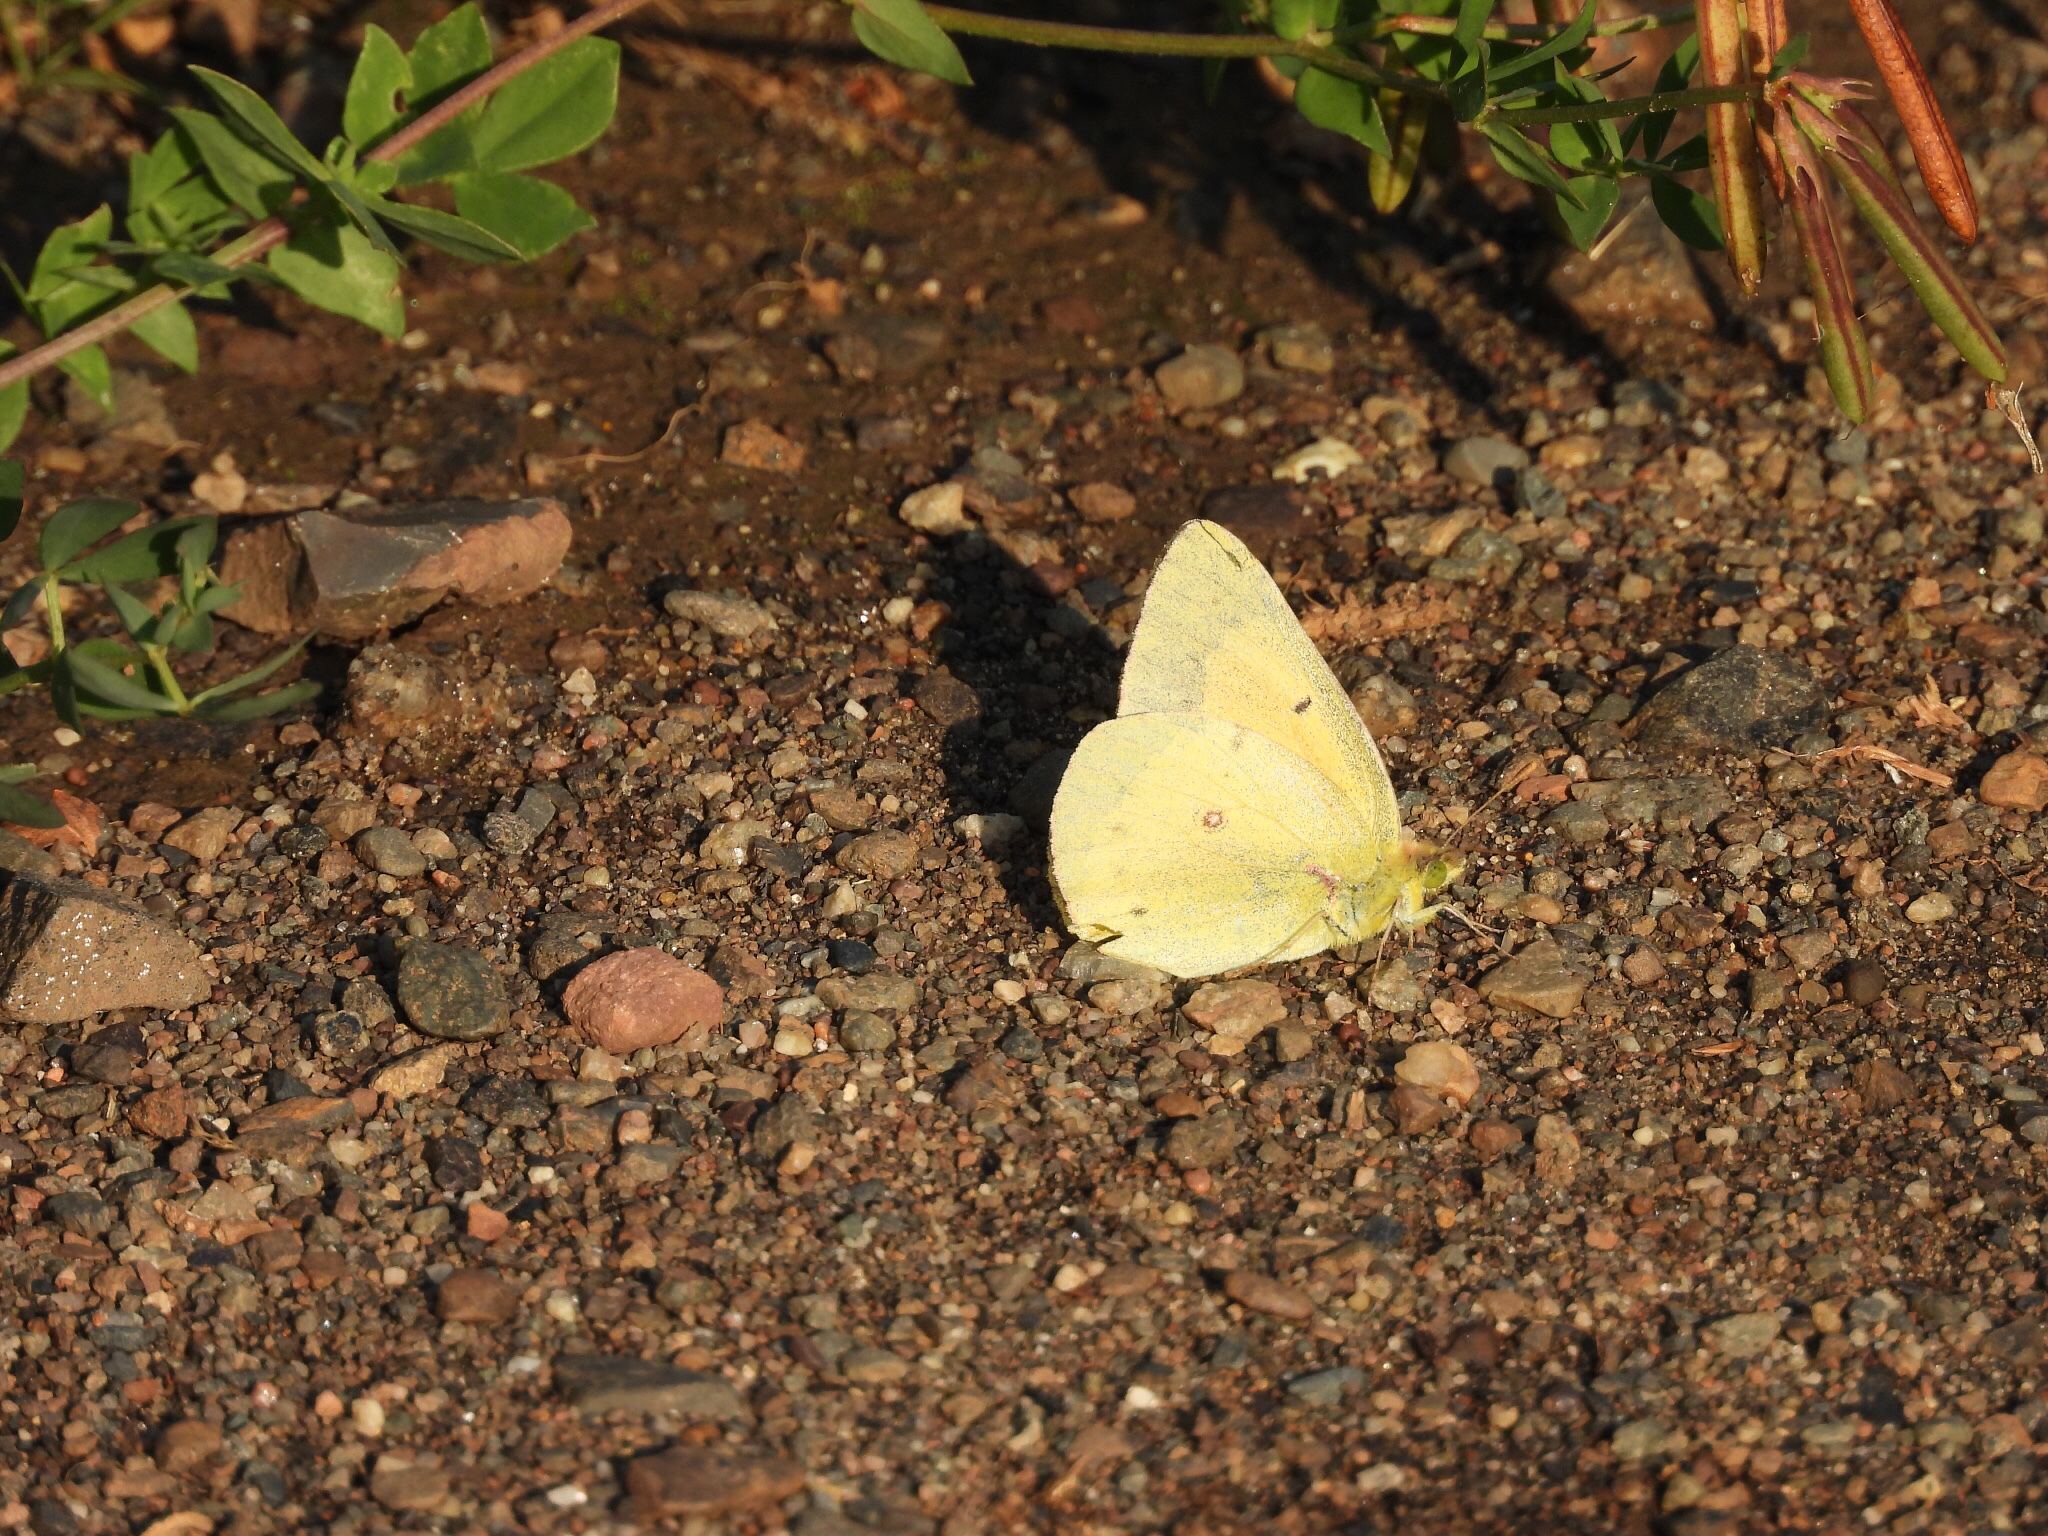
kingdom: Animalia
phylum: Arthropoda
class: Insecta
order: Lepidoptera
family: Pieridae
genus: Colias
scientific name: Colias eurytheme
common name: Alfalfa butterfly
